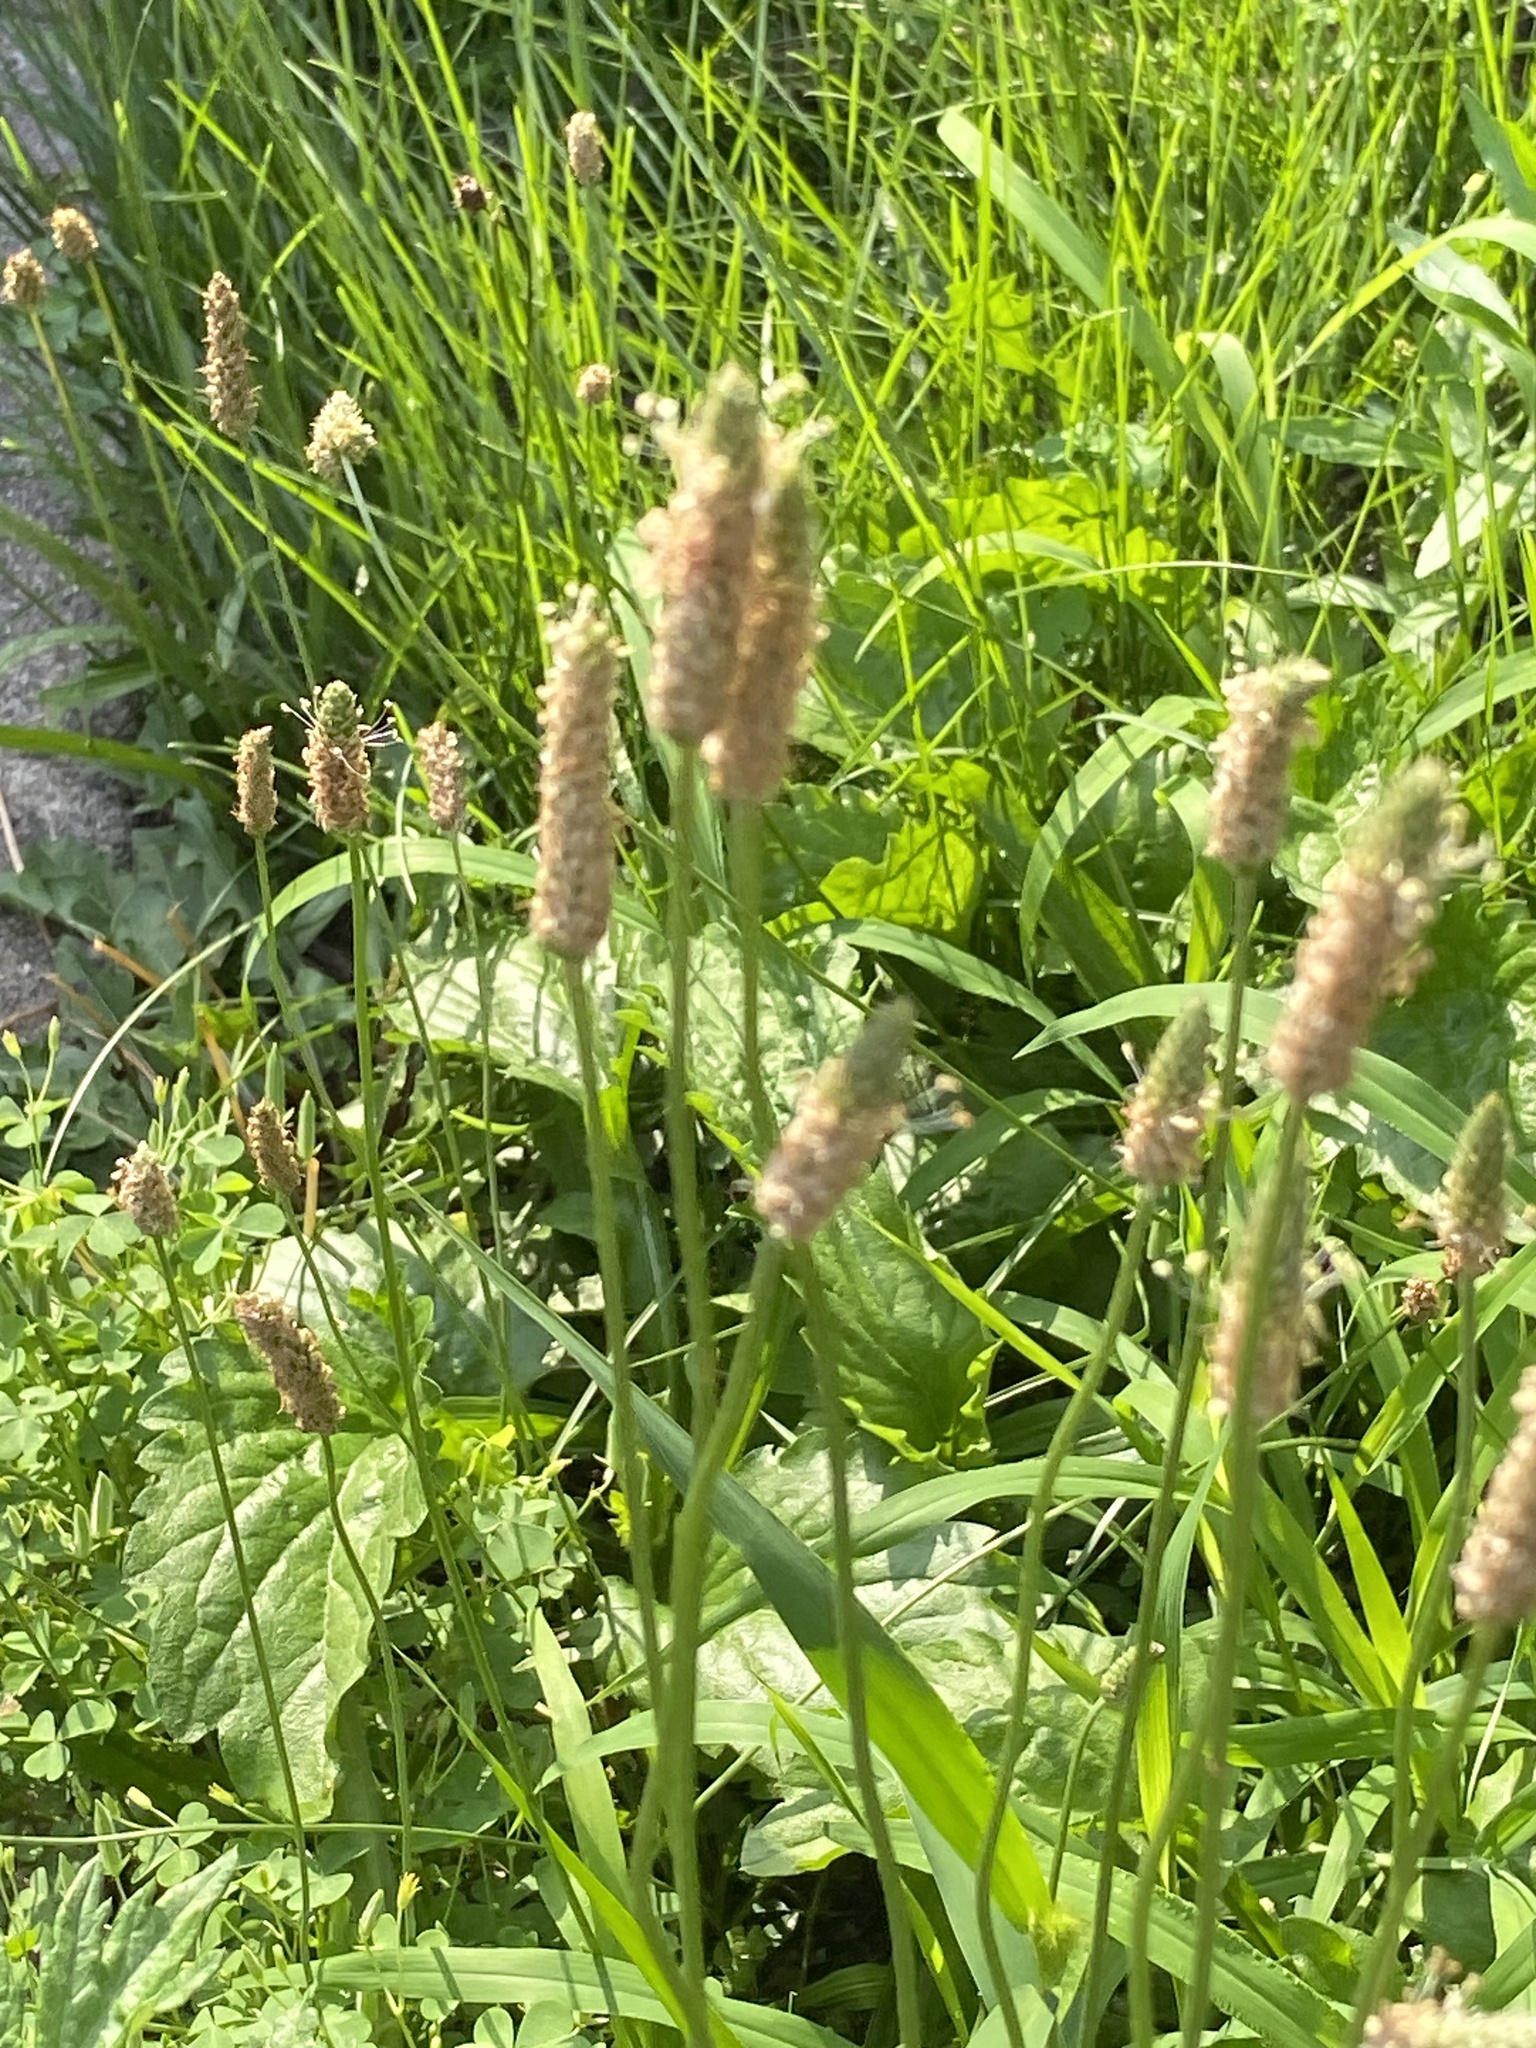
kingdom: Plantae
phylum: Tracheophyta
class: Magnoliopsida
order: Lamiales
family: Plantaginaceae
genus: Plantago
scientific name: Plantago lanceolata
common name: Ribwort plantain
